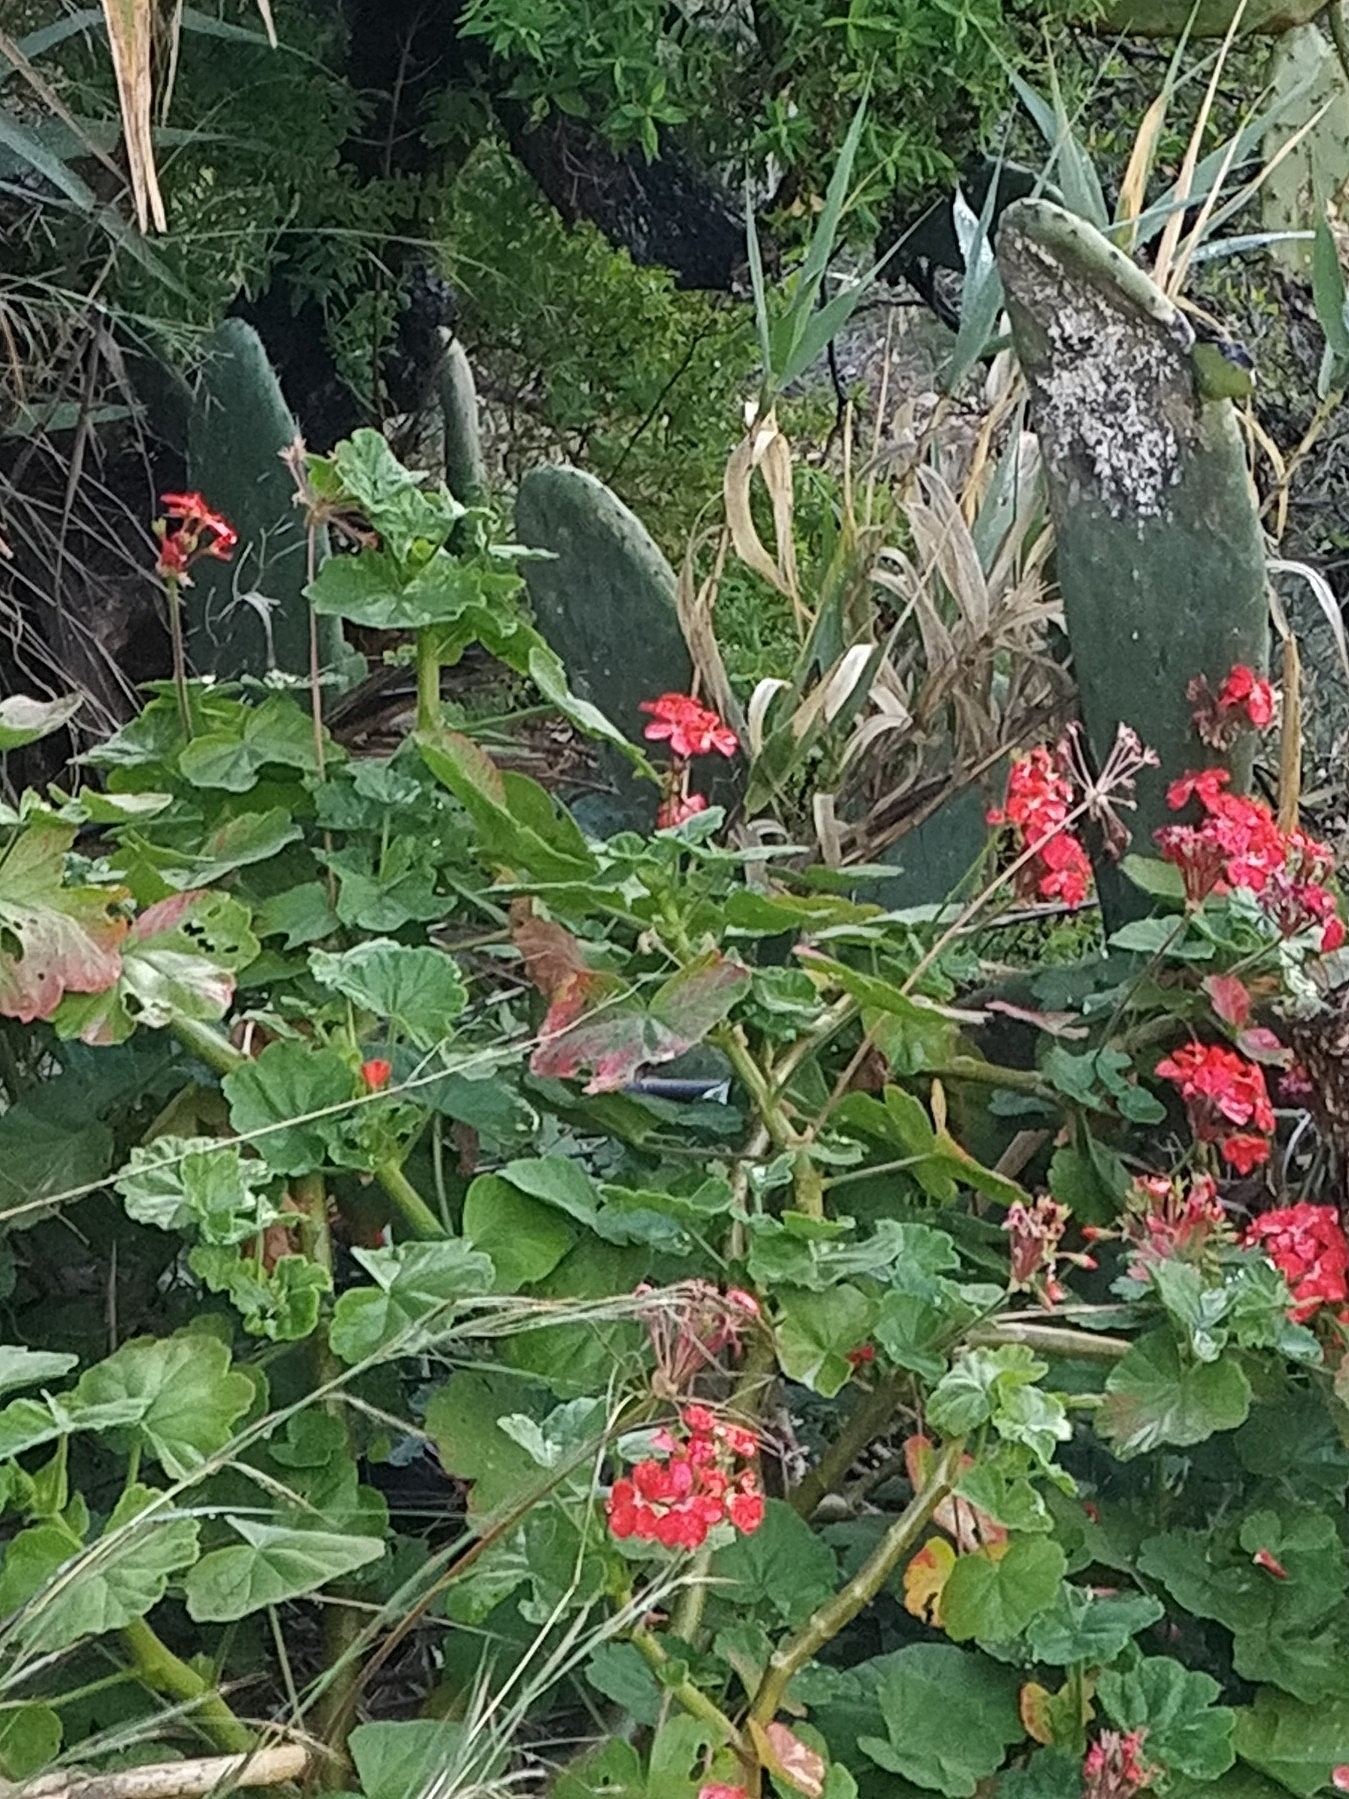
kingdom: Plantae
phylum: Tracheophyta
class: Magnoliopsida
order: Geraniales
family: Geraniaceae
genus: Pelargonium
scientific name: Pelargonium hybridum
